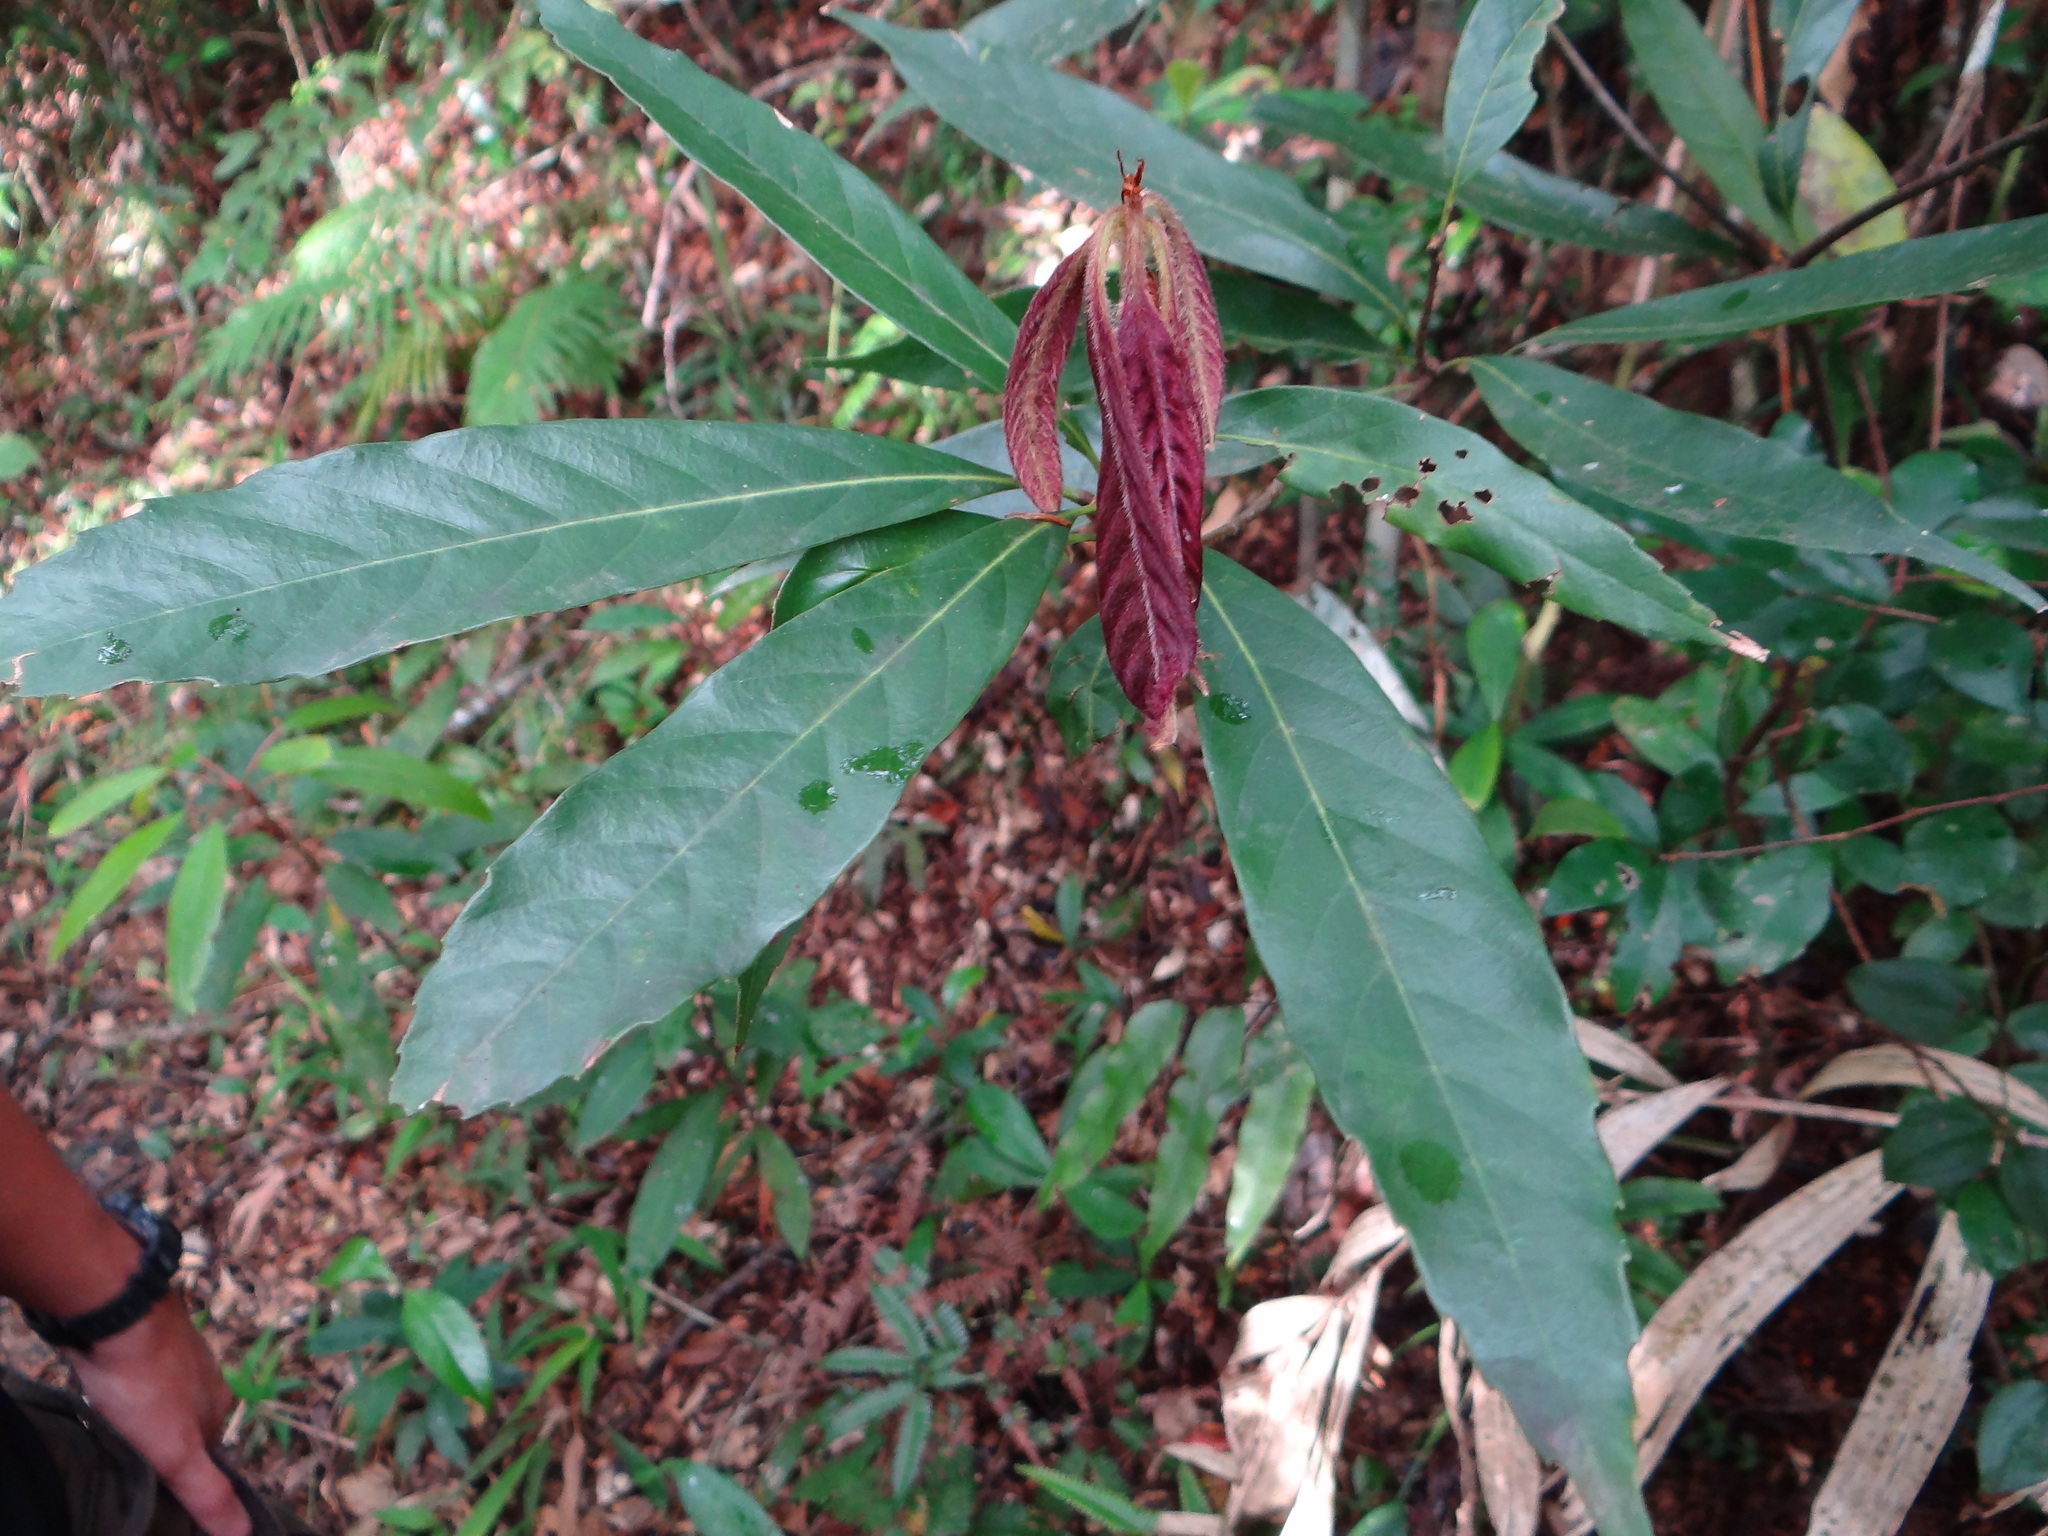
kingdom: Plantae
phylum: Tracheophyta
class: Magnoliopsida
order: Fagales
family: Fagaceae
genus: Quercus
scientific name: Quercus pachyloma
